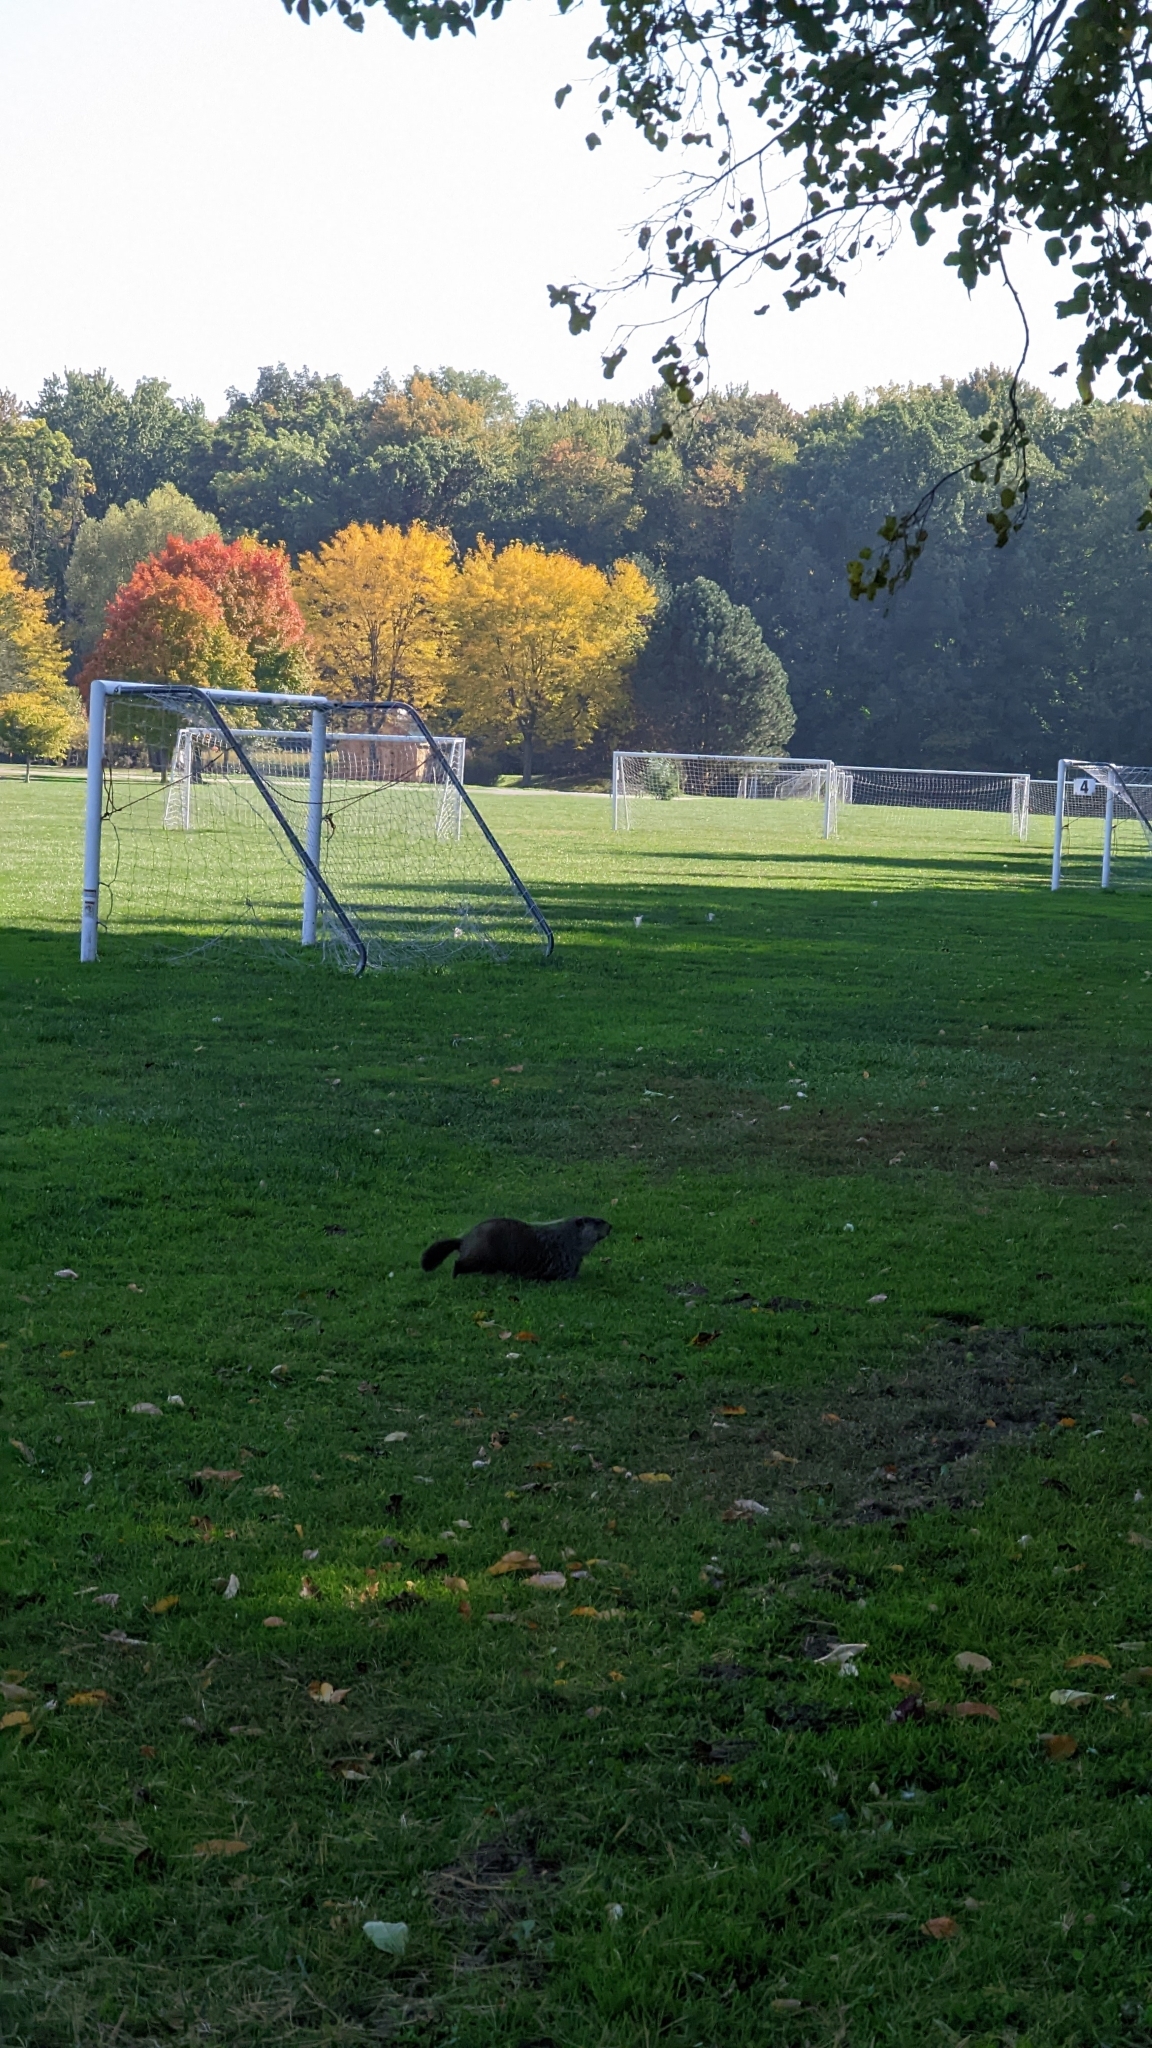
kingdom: Animalia
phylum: Chordata
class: Mammalia
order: Rodentia
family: Sciuridae
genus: Marmota
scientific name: Marmota monax
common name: Groundhog
